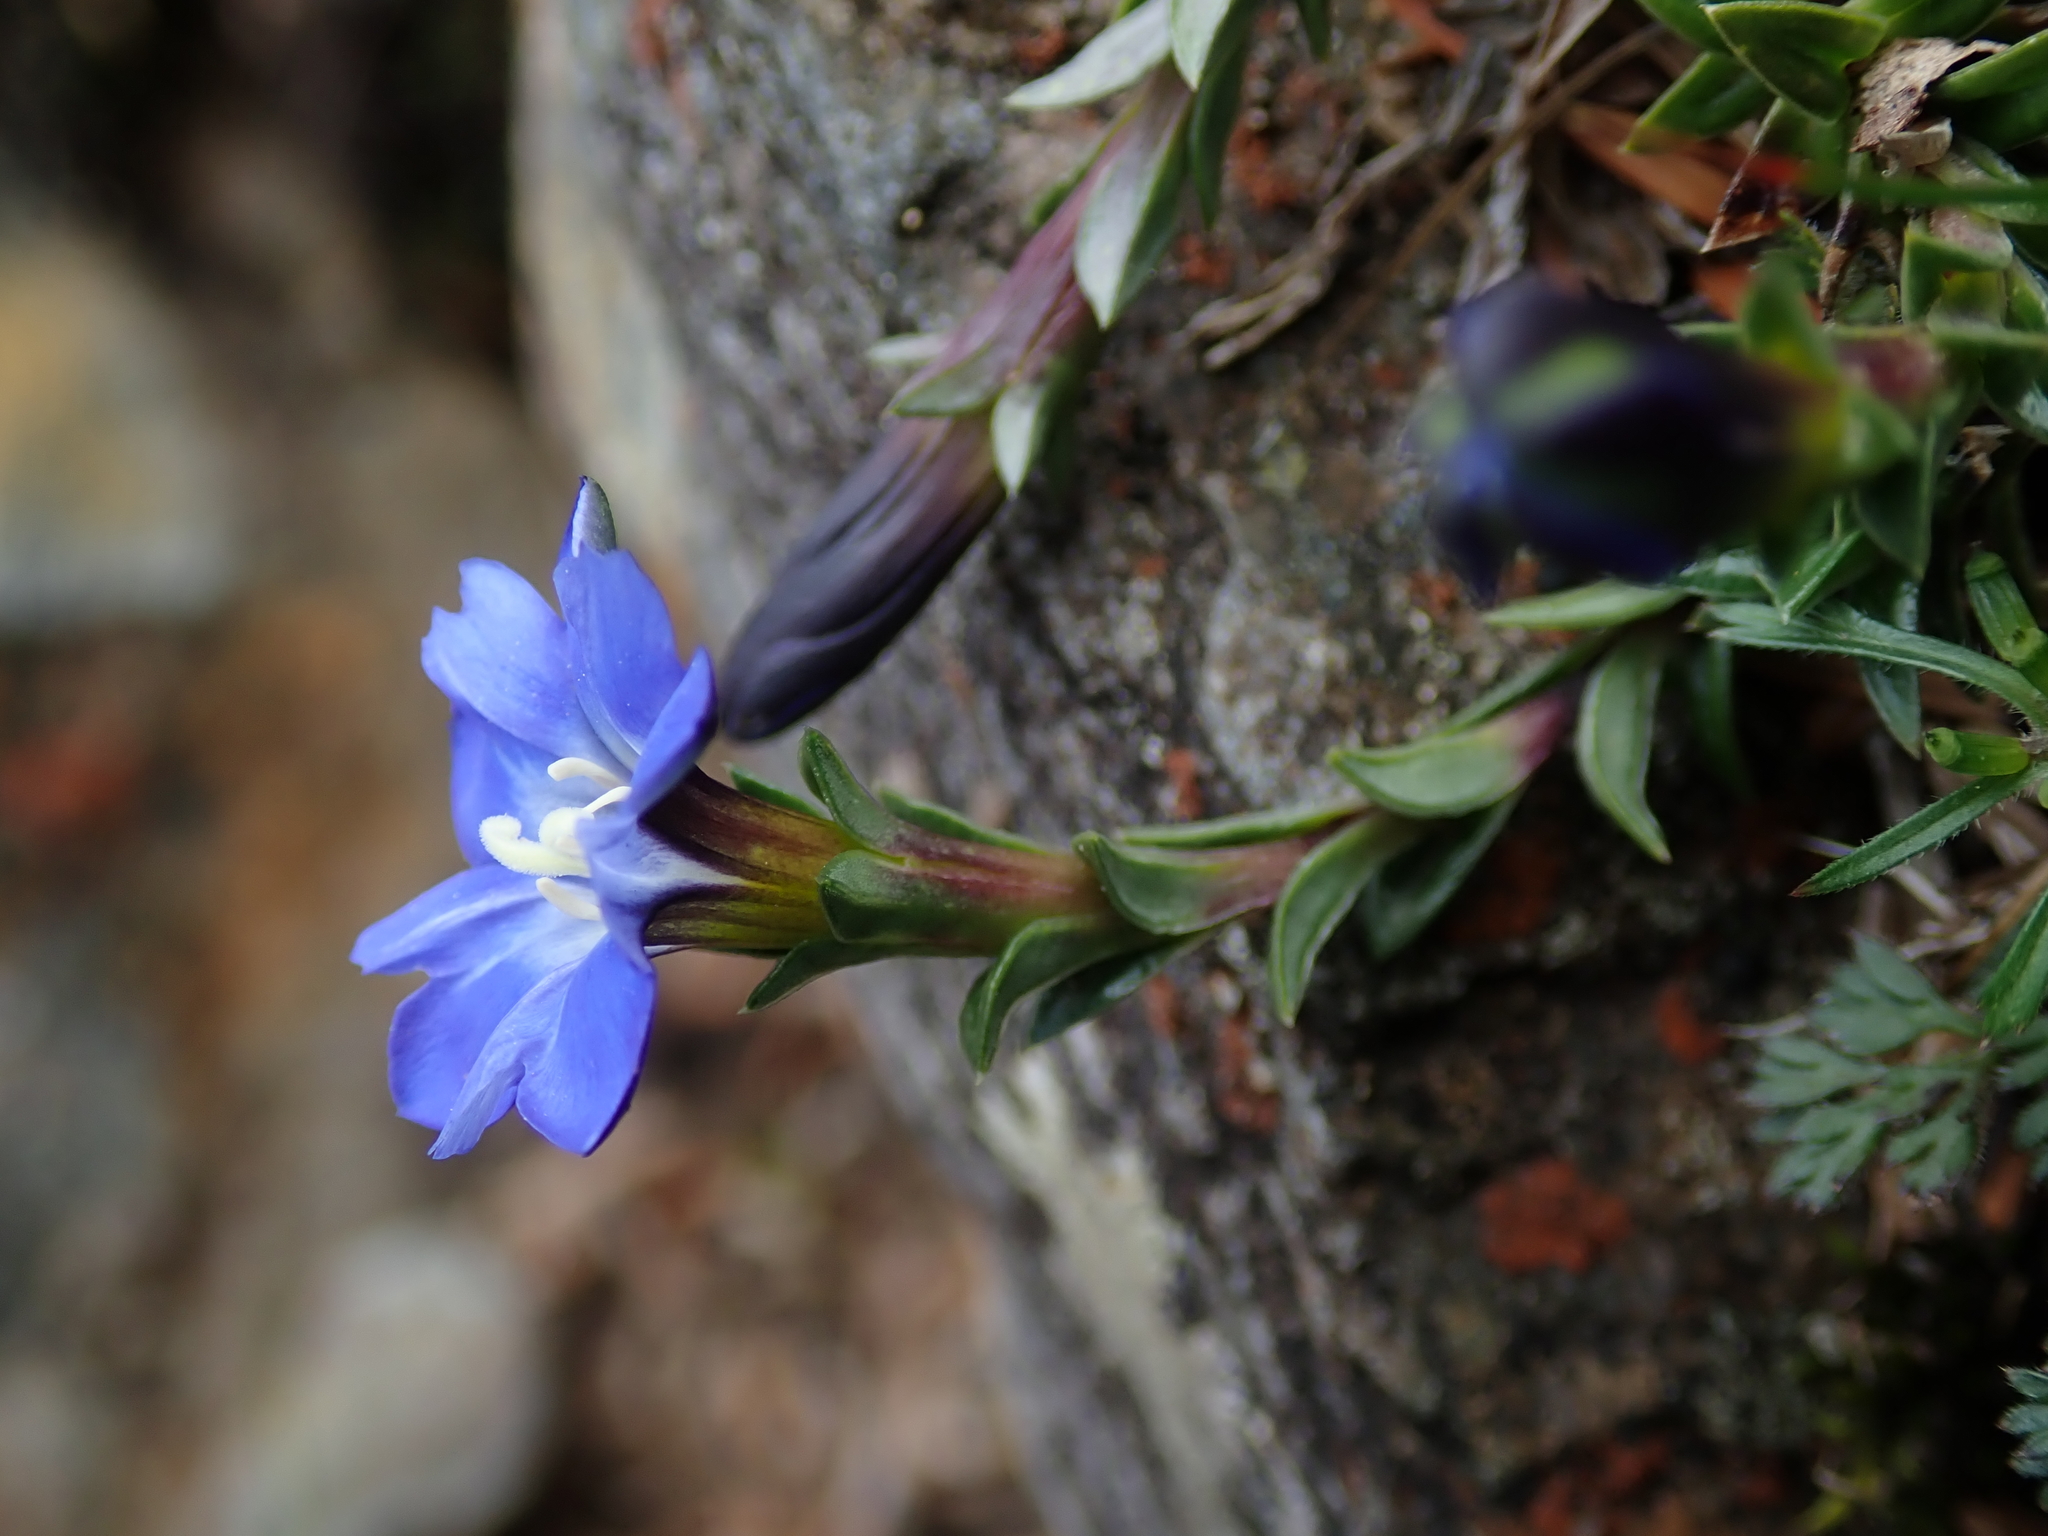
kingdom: Plantae
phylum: Tracheophyta
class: Magnoliopsida
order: Gentianales
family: Gentianaceae
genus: Gentiana
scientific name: Gentiana arisanensis
